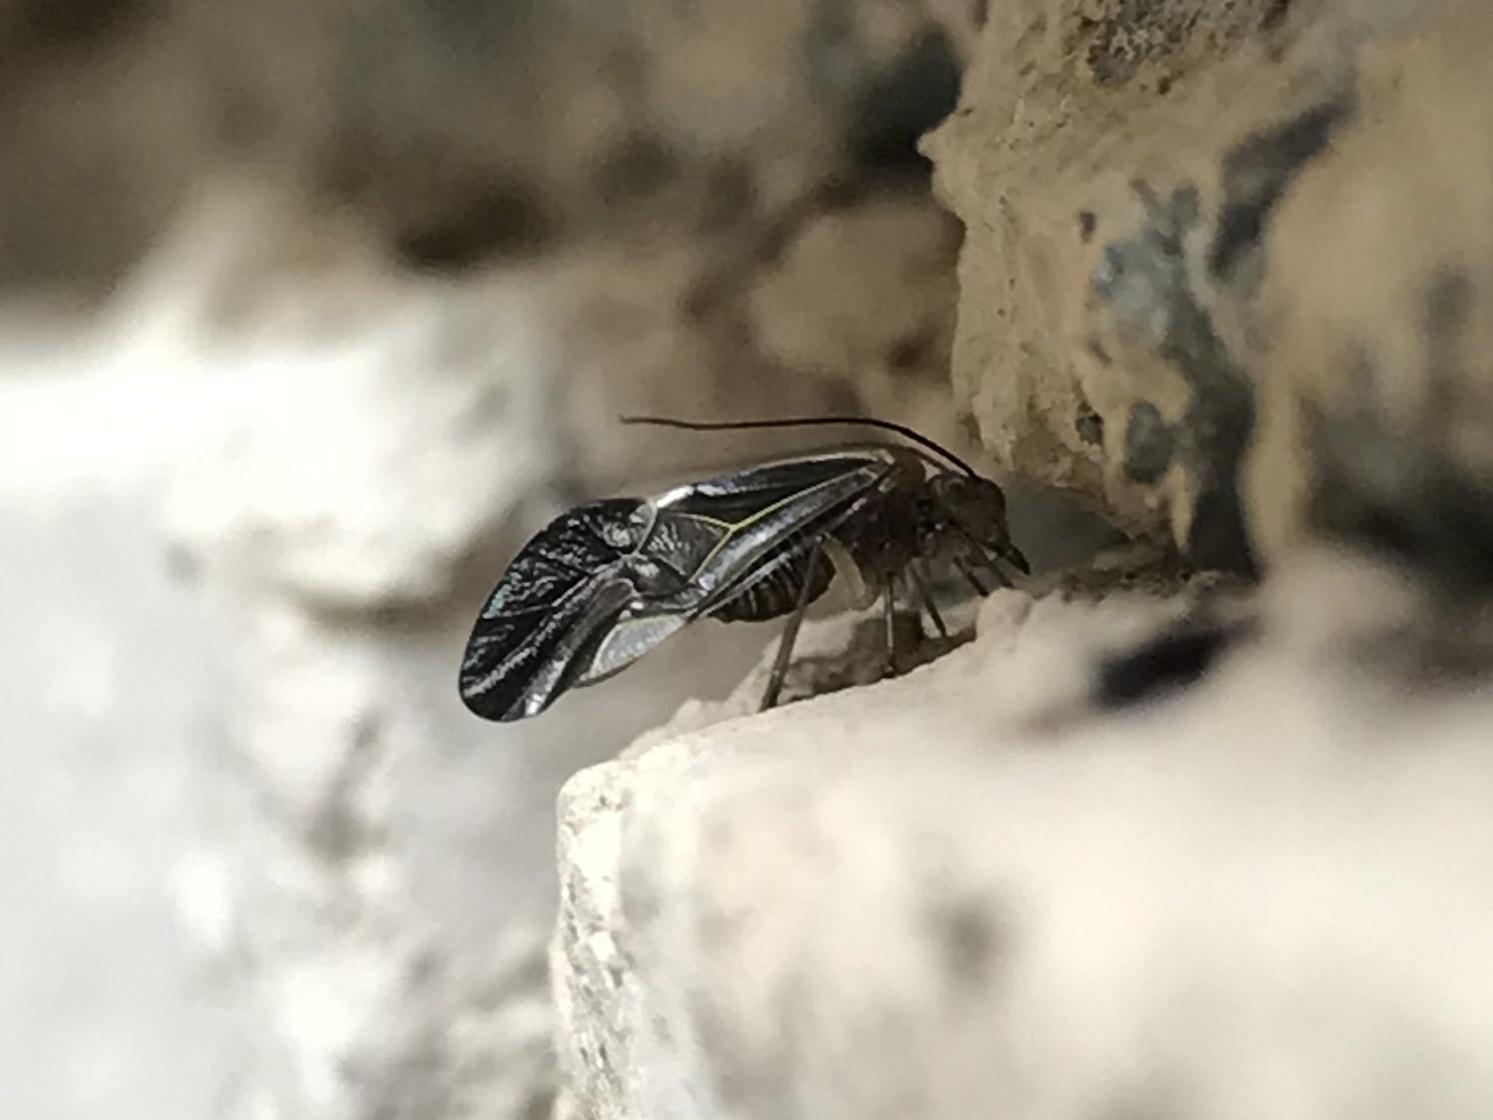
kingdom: Animalia
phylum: Arthropoda
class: Insecta
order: Psocodea
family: Psocidae
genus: Cerastipsocus
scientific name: Cerastipsocus venosus
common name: Tree cattle
